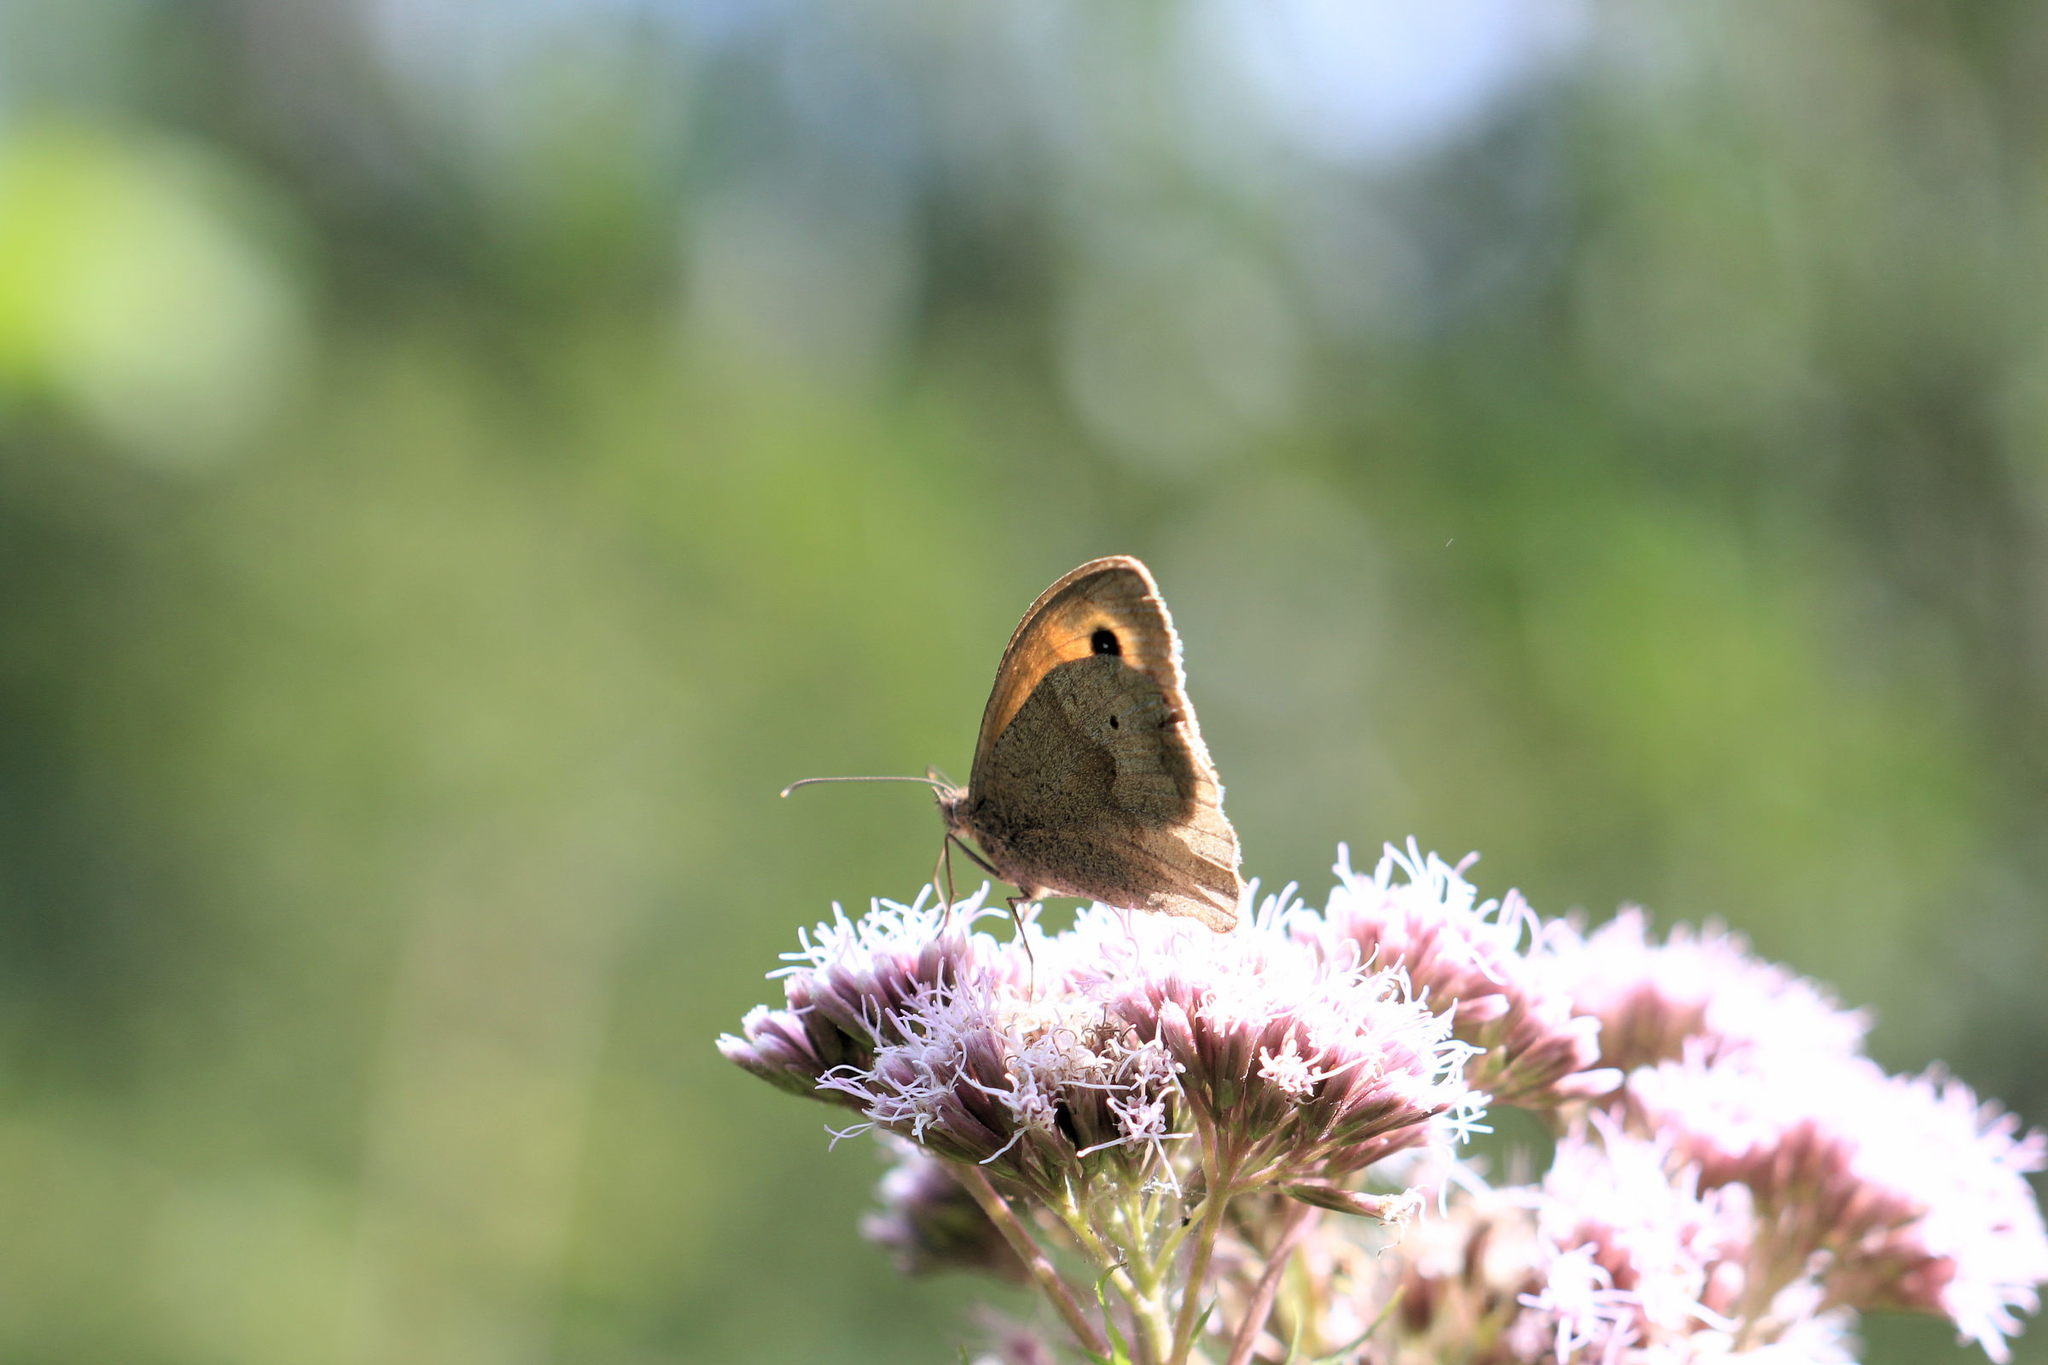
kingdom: Animalia
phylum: Arthropoda
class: Insecta
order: Lepidoptera
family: Nymphalidae
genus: Maniola
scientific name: Maniola jurtina
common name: Meadow brown
